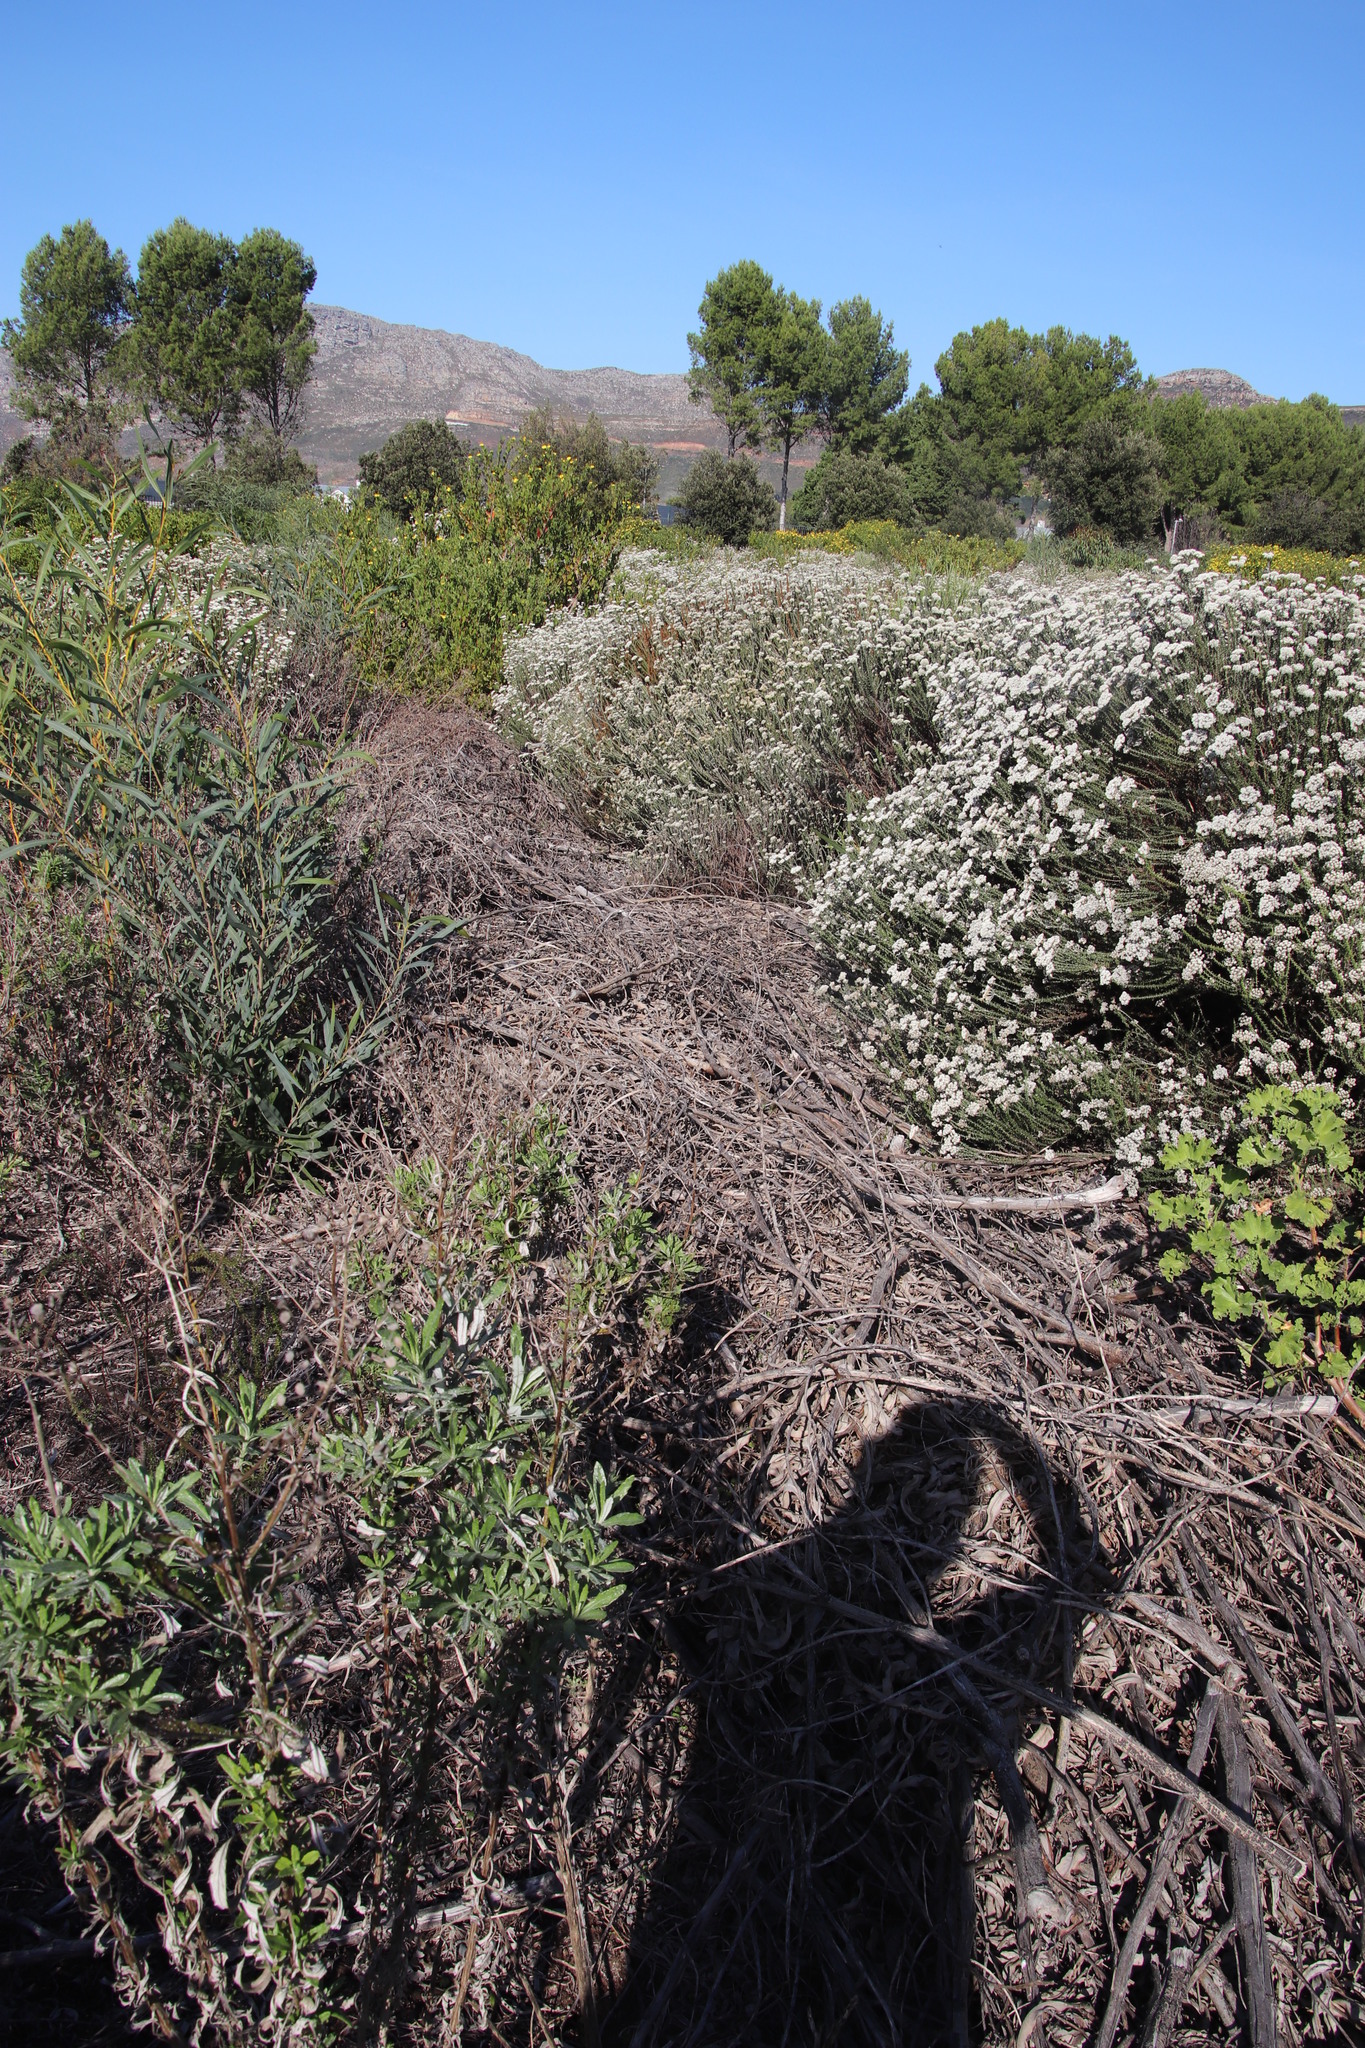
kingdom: Plantae
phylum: Tracheophyta
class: Magnoliopsida
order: Fabales
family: Fabaceae
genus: Acacia
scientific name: Acacia saligna
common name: Orange wattle
